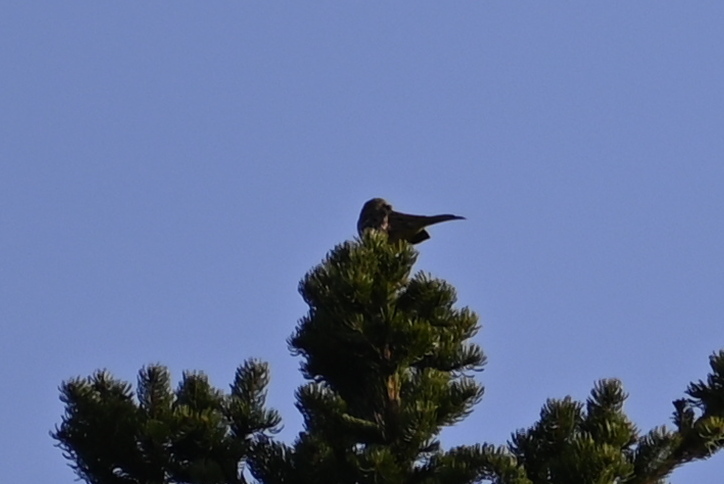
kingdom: Animalia
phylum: Chordata
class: Aves
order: Passeriformes
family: Emberizidae
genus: Emberiza
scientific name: Emberiza citrinella
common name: Yellowhammer
